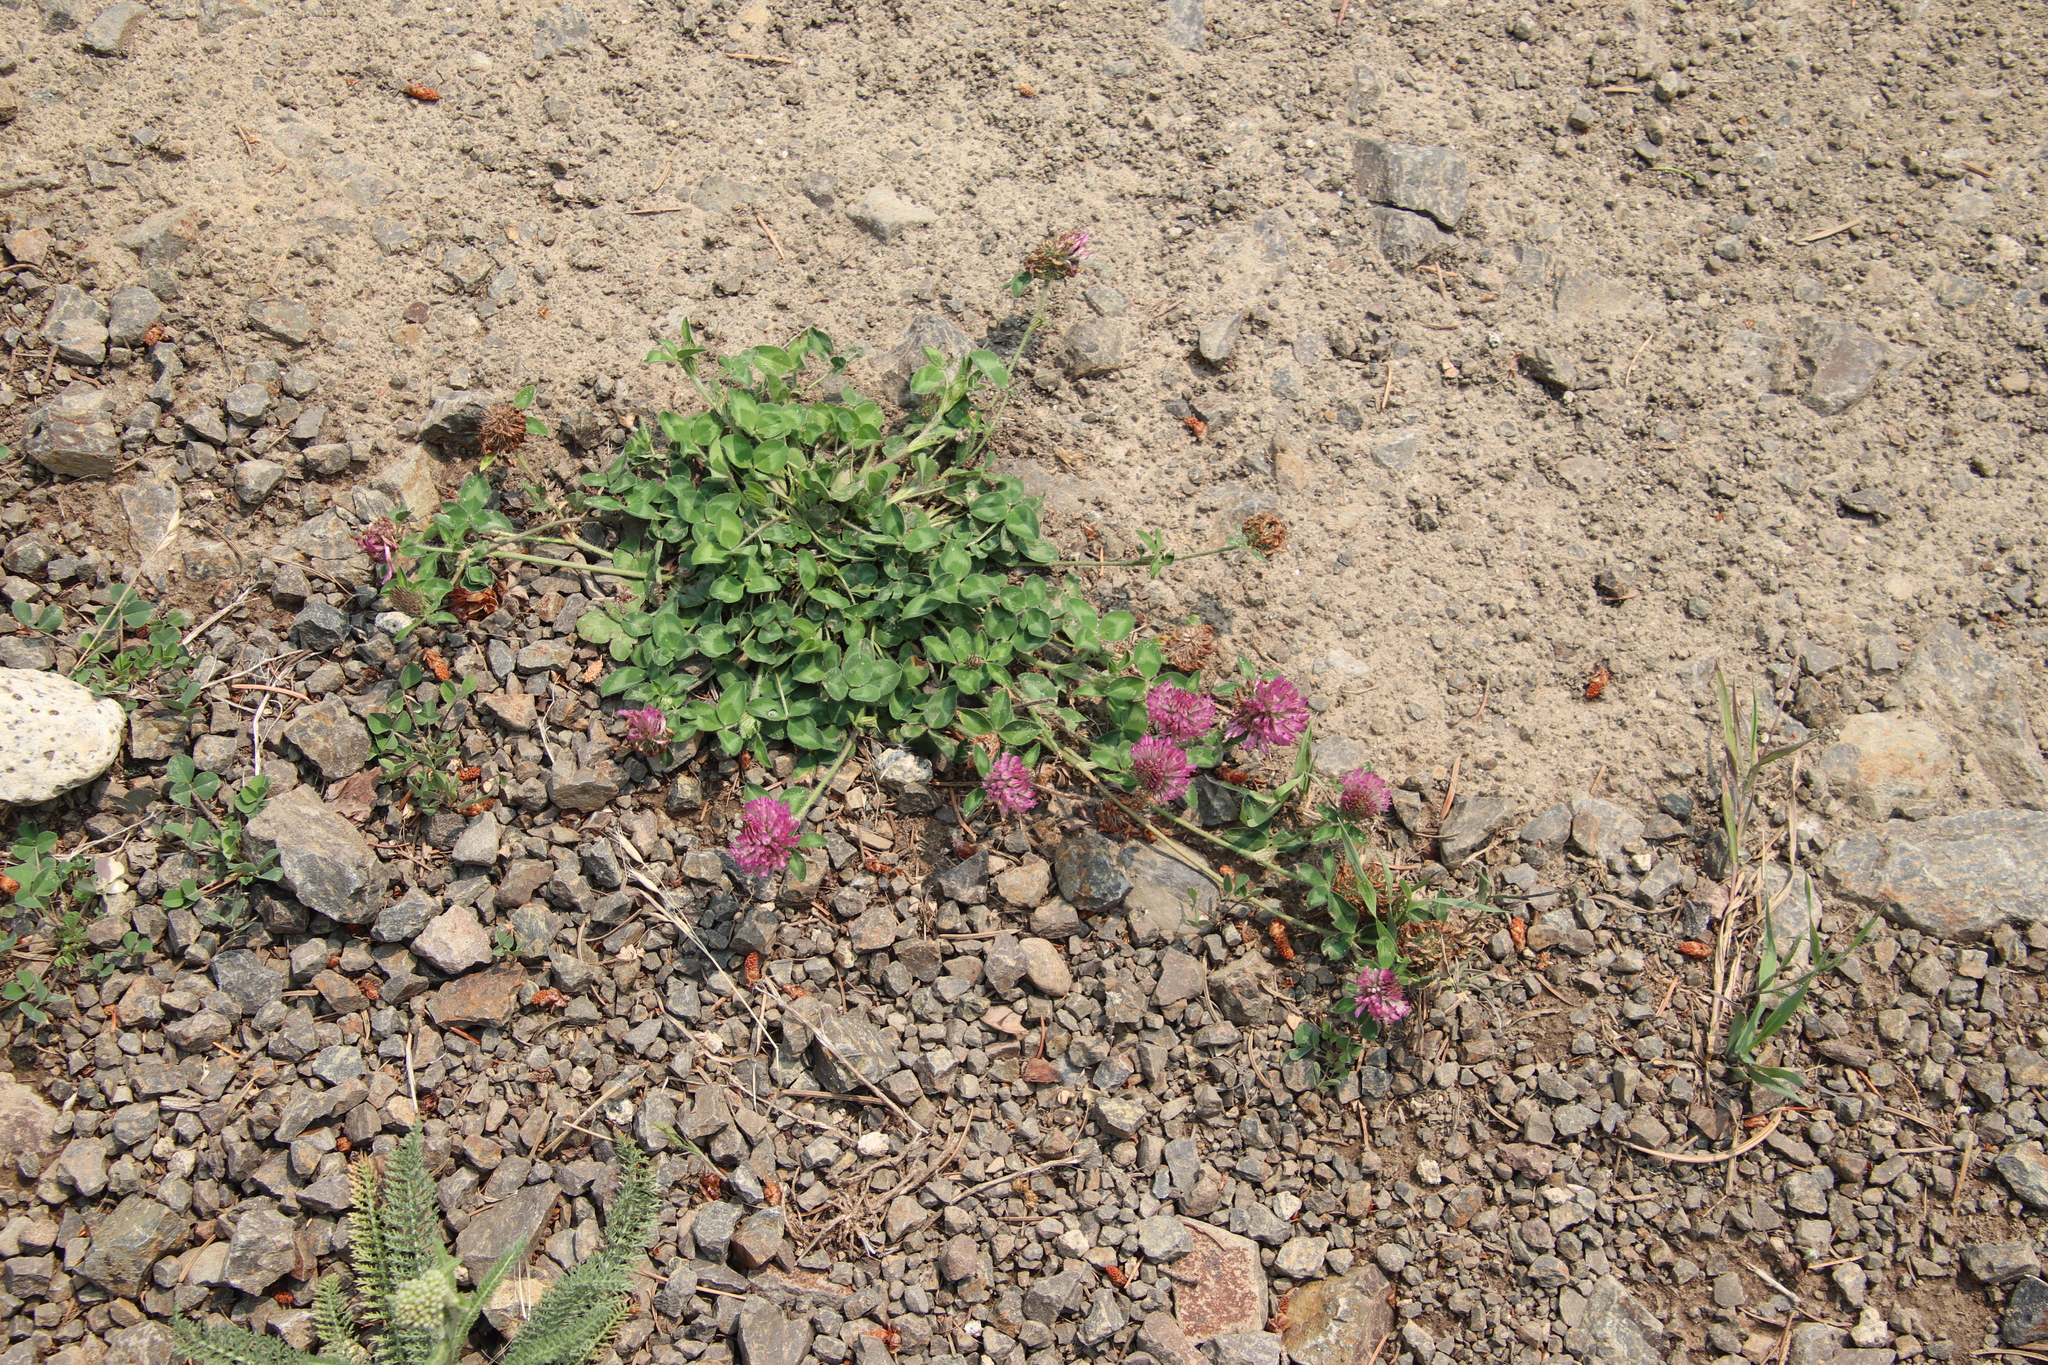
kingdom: Plantae
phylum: Tracheophyta
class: Magnoliopsida
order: Fabales
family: Fabaceae
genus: Trifolium
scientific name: Trifolium pratense
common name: Red clover
